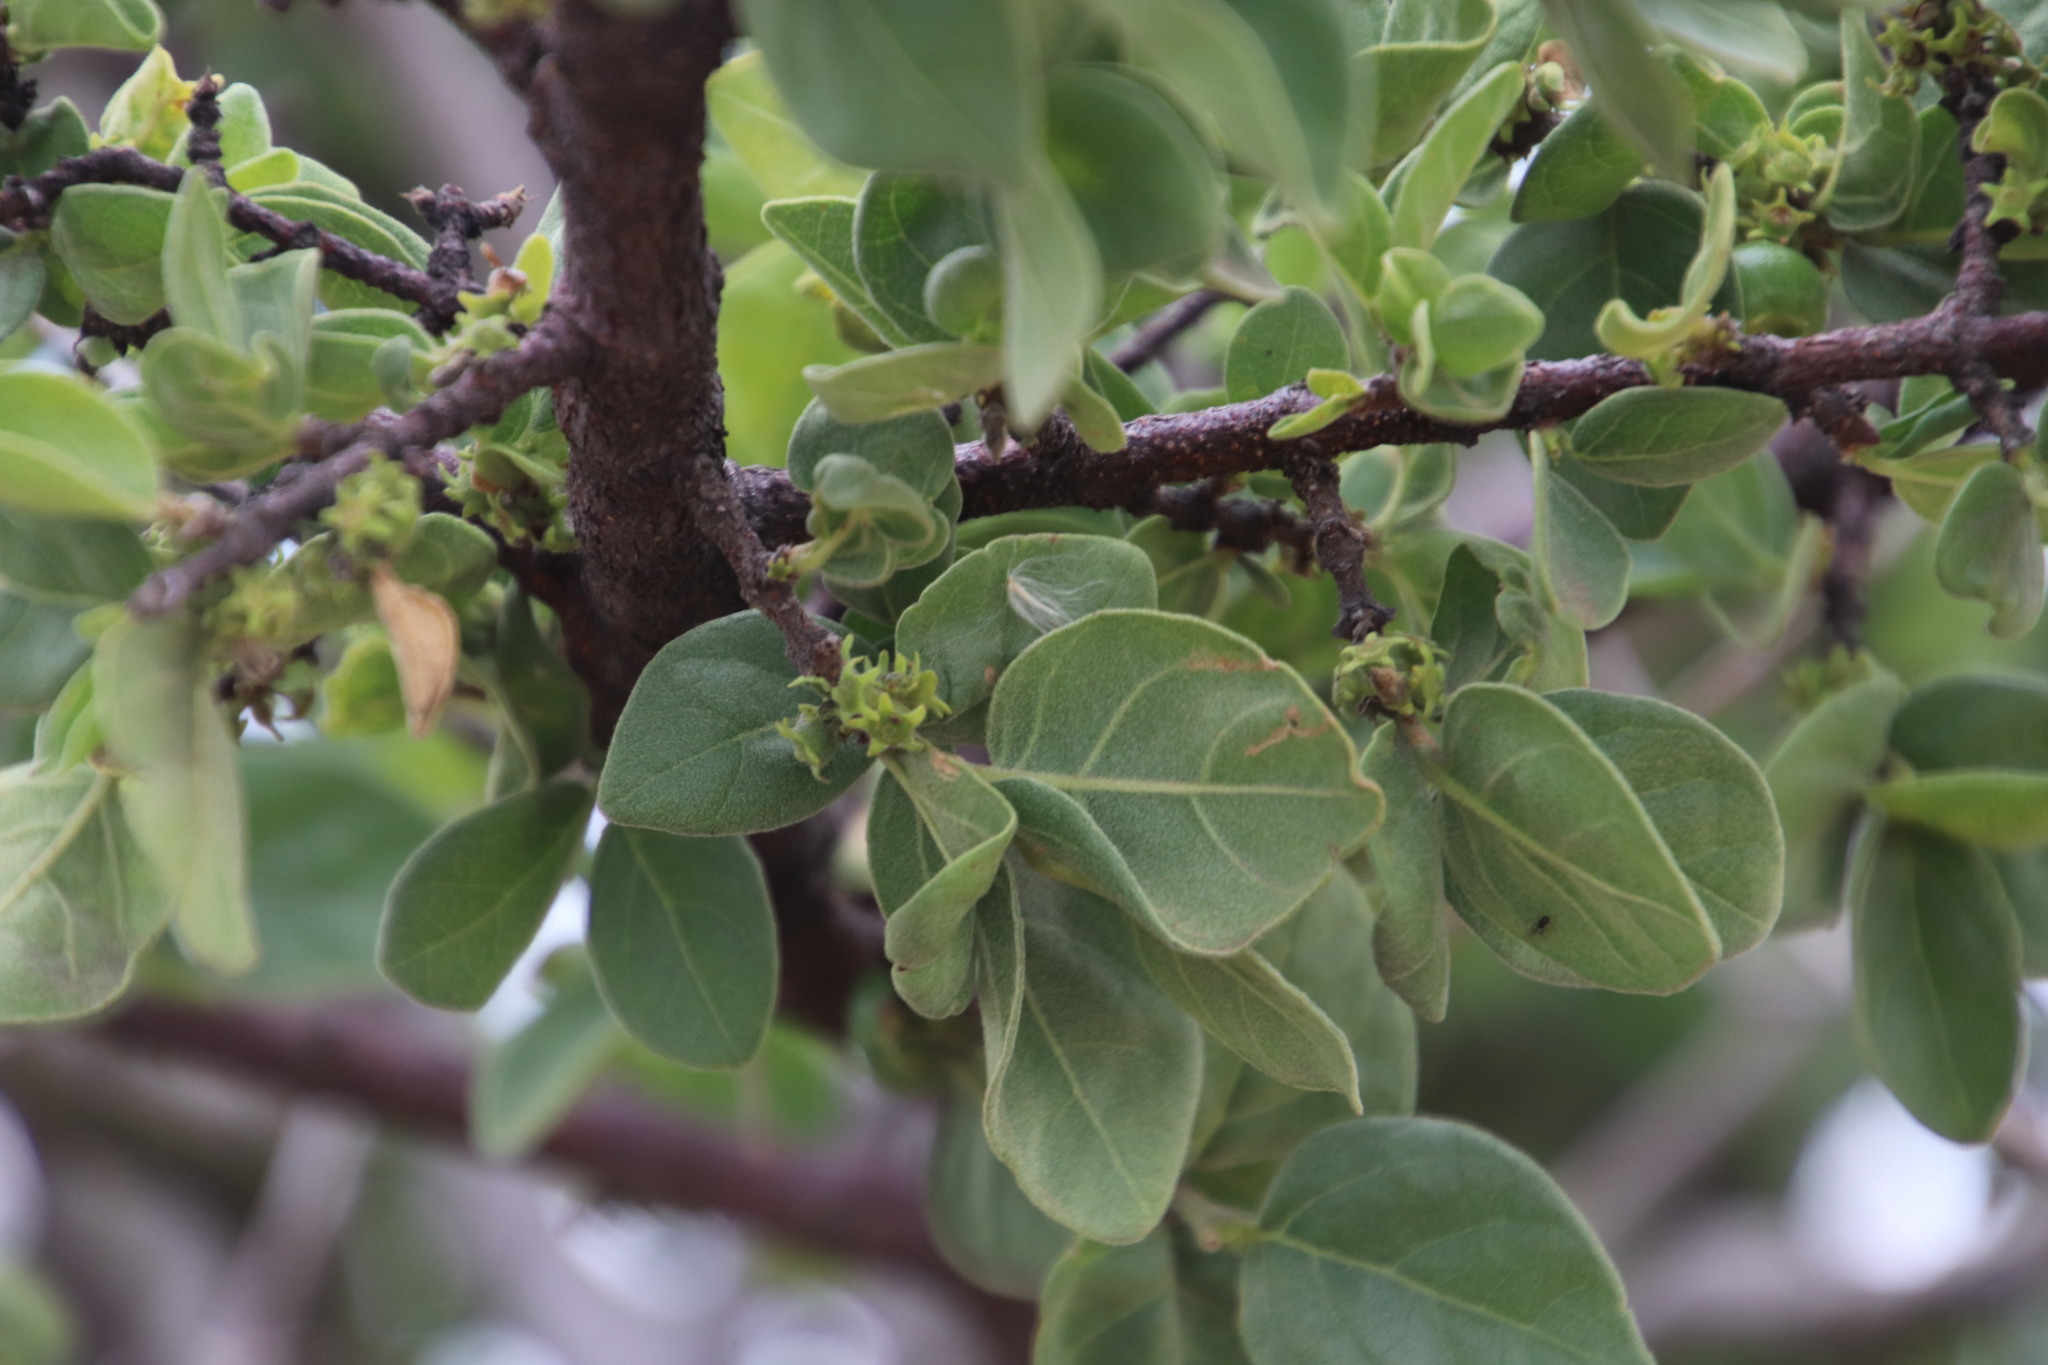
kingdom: Plantae
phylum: Tracheophyta
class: Magnoliopsida
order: Gentianales
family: Rubiaceae
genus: Vangueria
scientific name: Vangueria parvifolia
